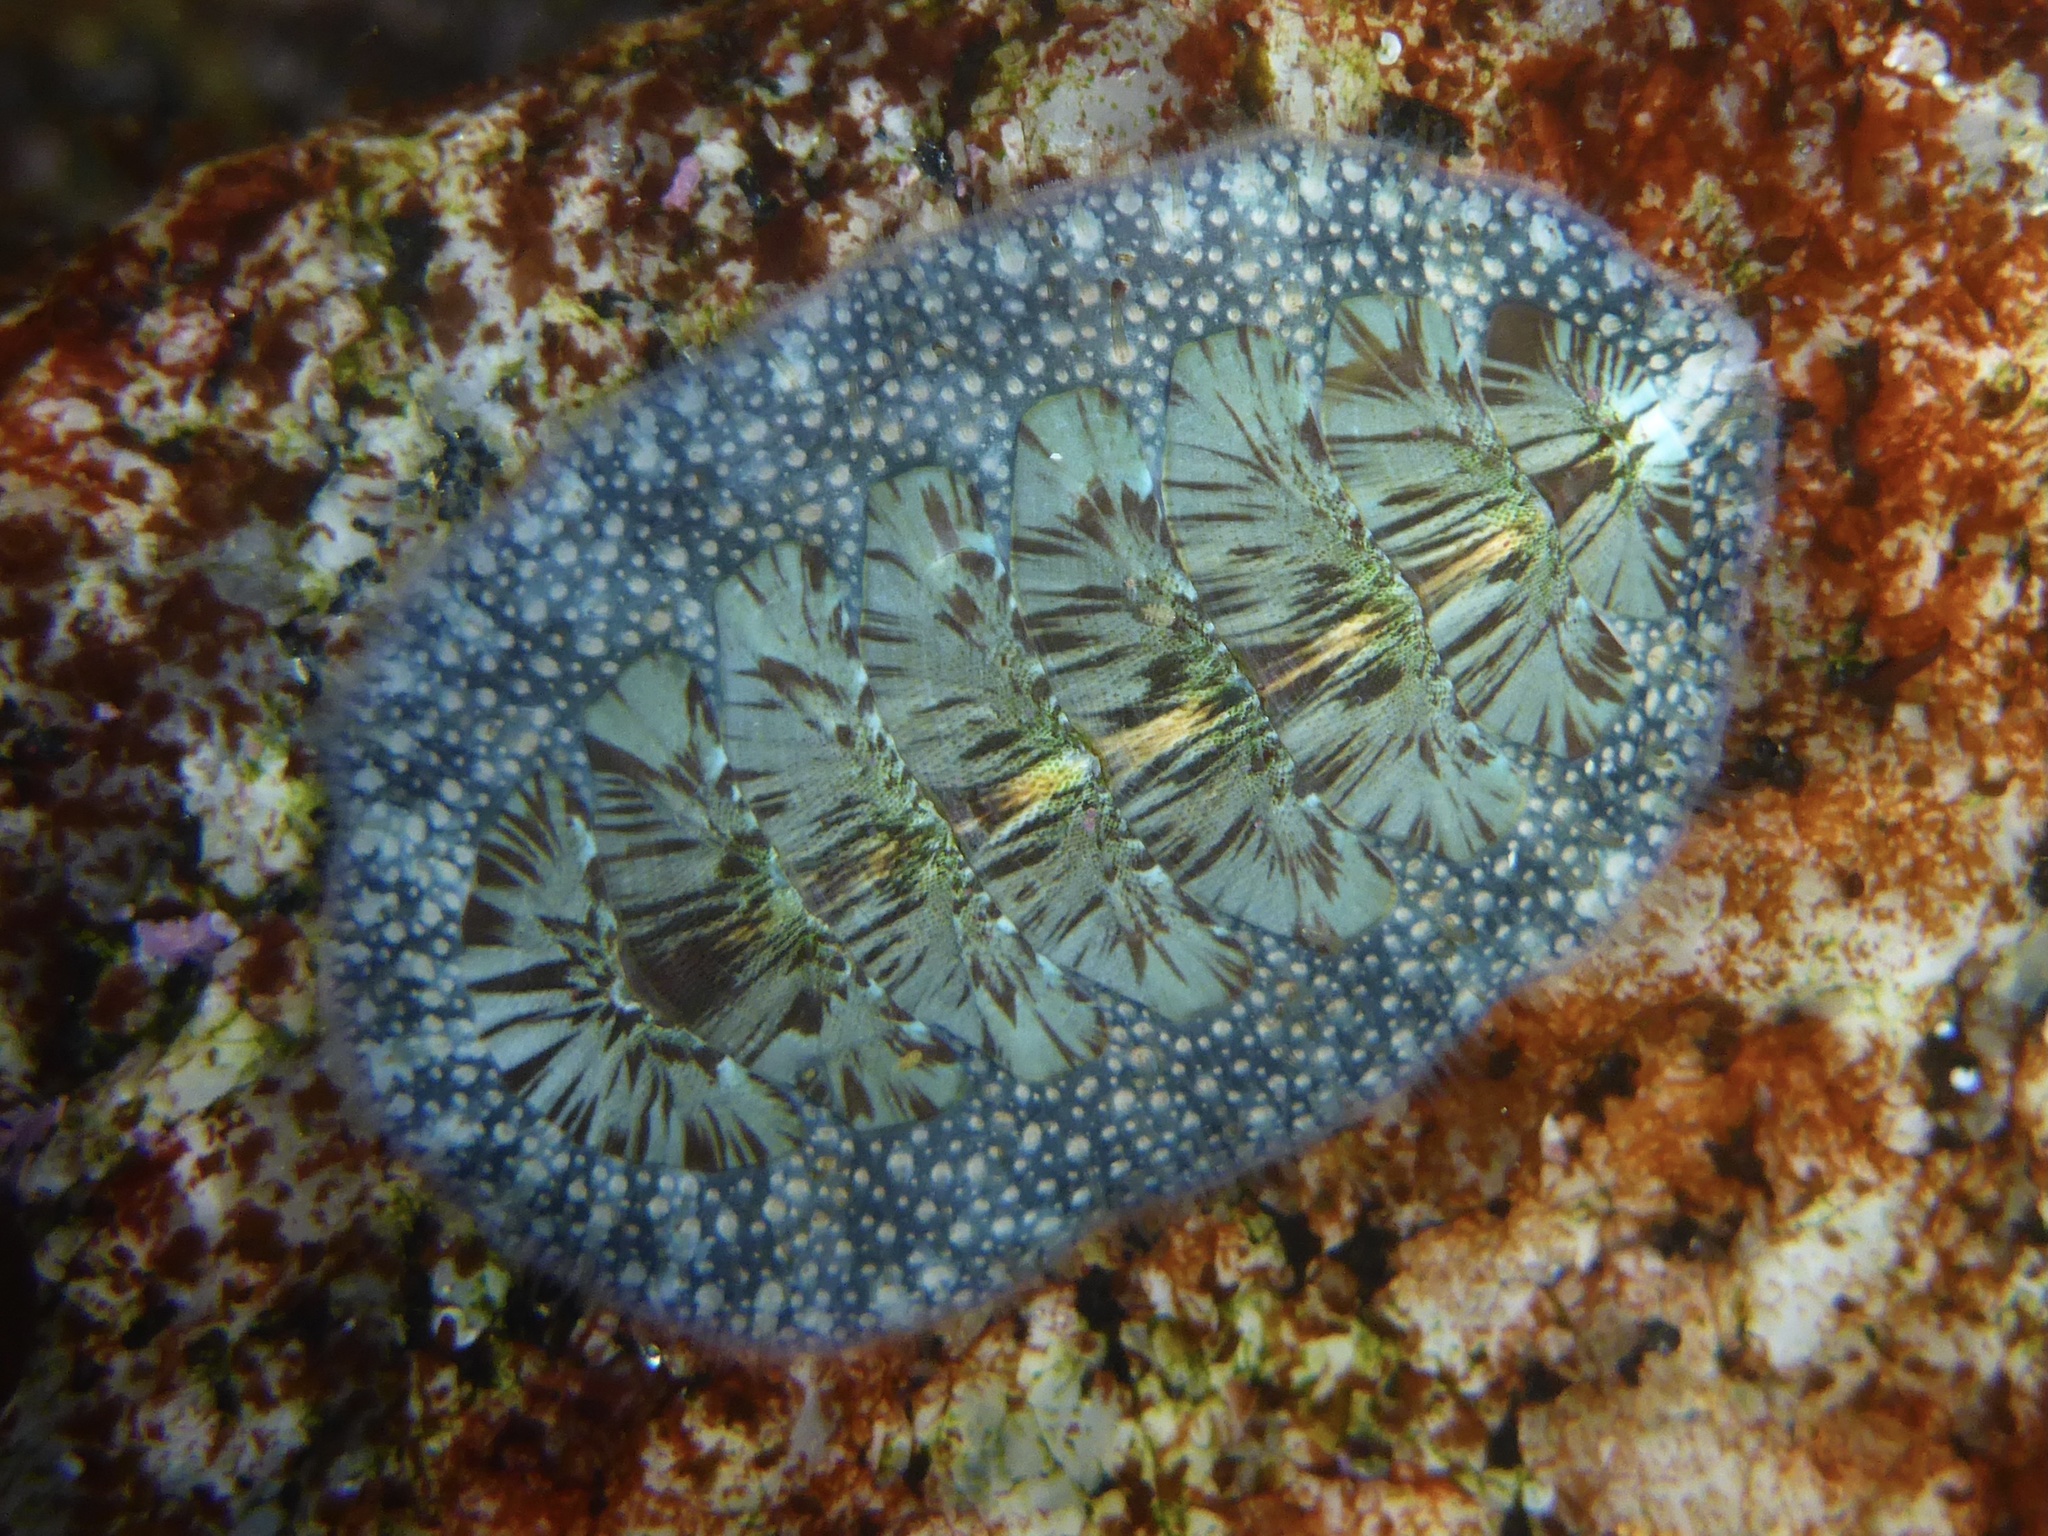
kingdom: Animalia
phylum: Mollusca
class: Polyplacophora
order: Chitonida
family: Mopaliidae
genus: Mopalia
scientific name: Mopalia lignosa
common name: Woody chiton
